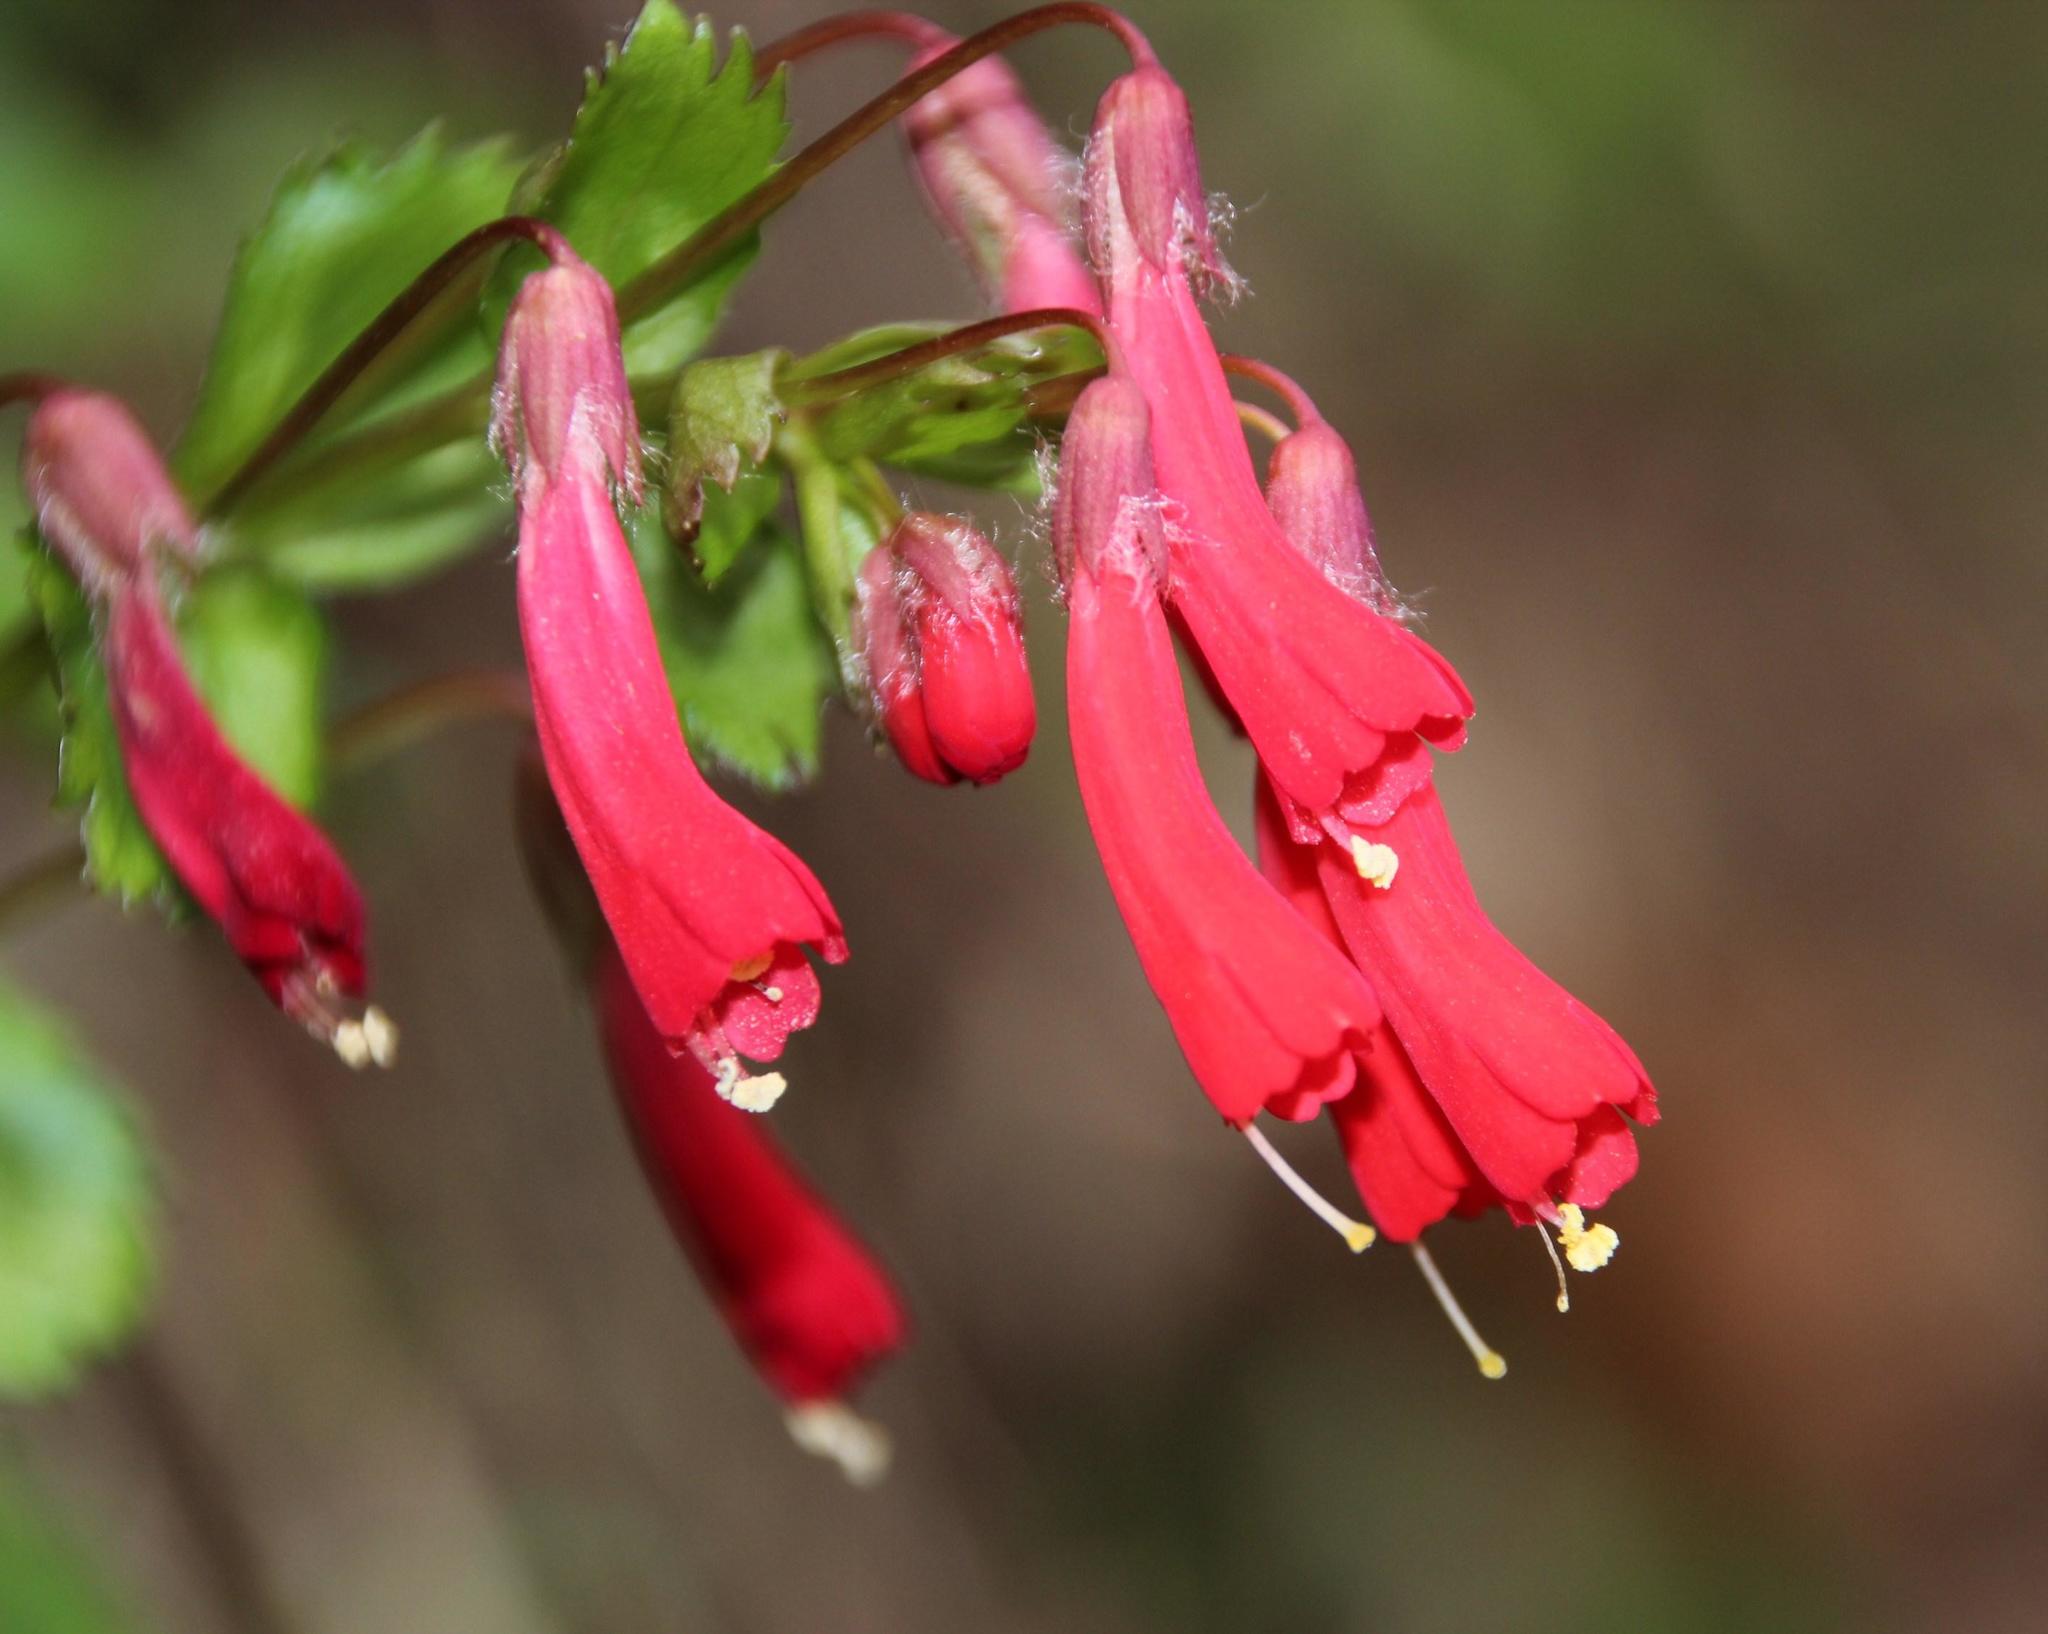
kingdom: Plantae
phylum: Tracheophyta
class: Magnoliopsida
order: Lamiales
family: Plantaginaceae
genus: Ourisia
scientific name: Ourisia ruellioides
